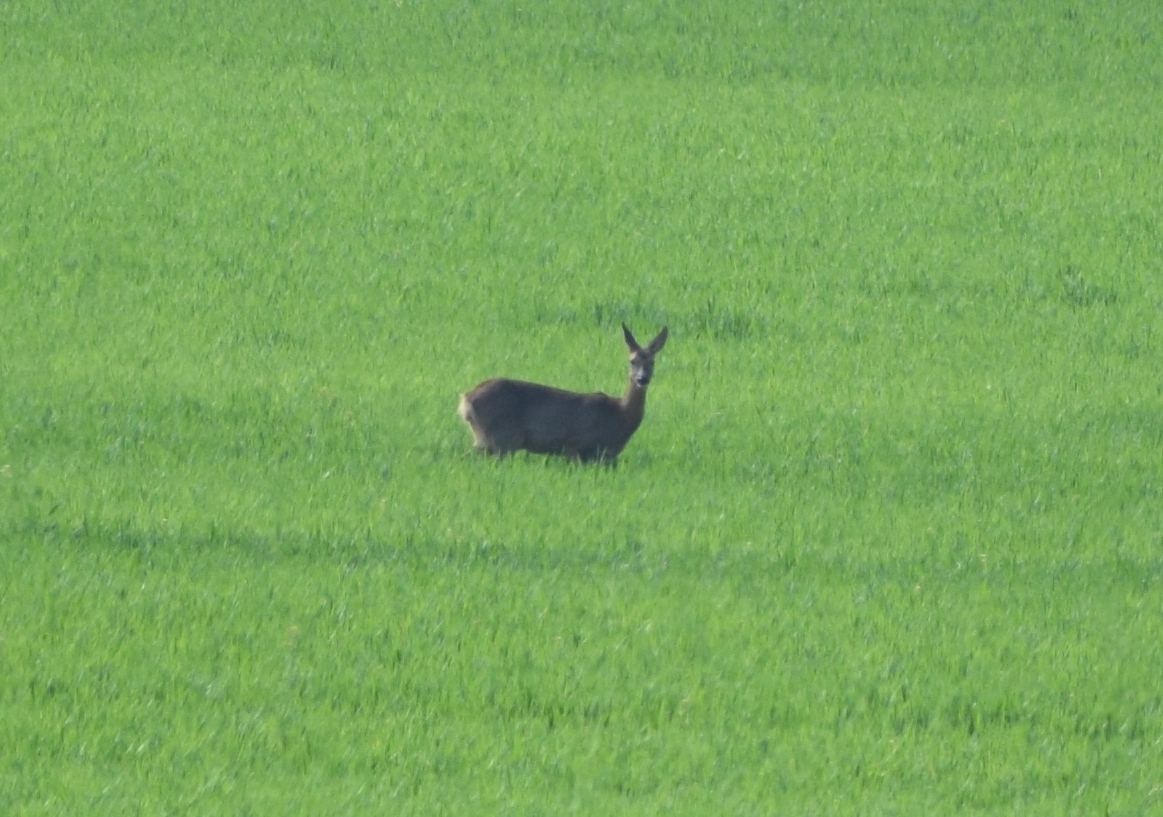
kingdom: Animalia
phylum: Chordata
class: Mammalia
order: Artiodactyla
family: Cervidae
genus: Capreolus
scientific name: Capreolus capreolus
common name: Western roe deer
